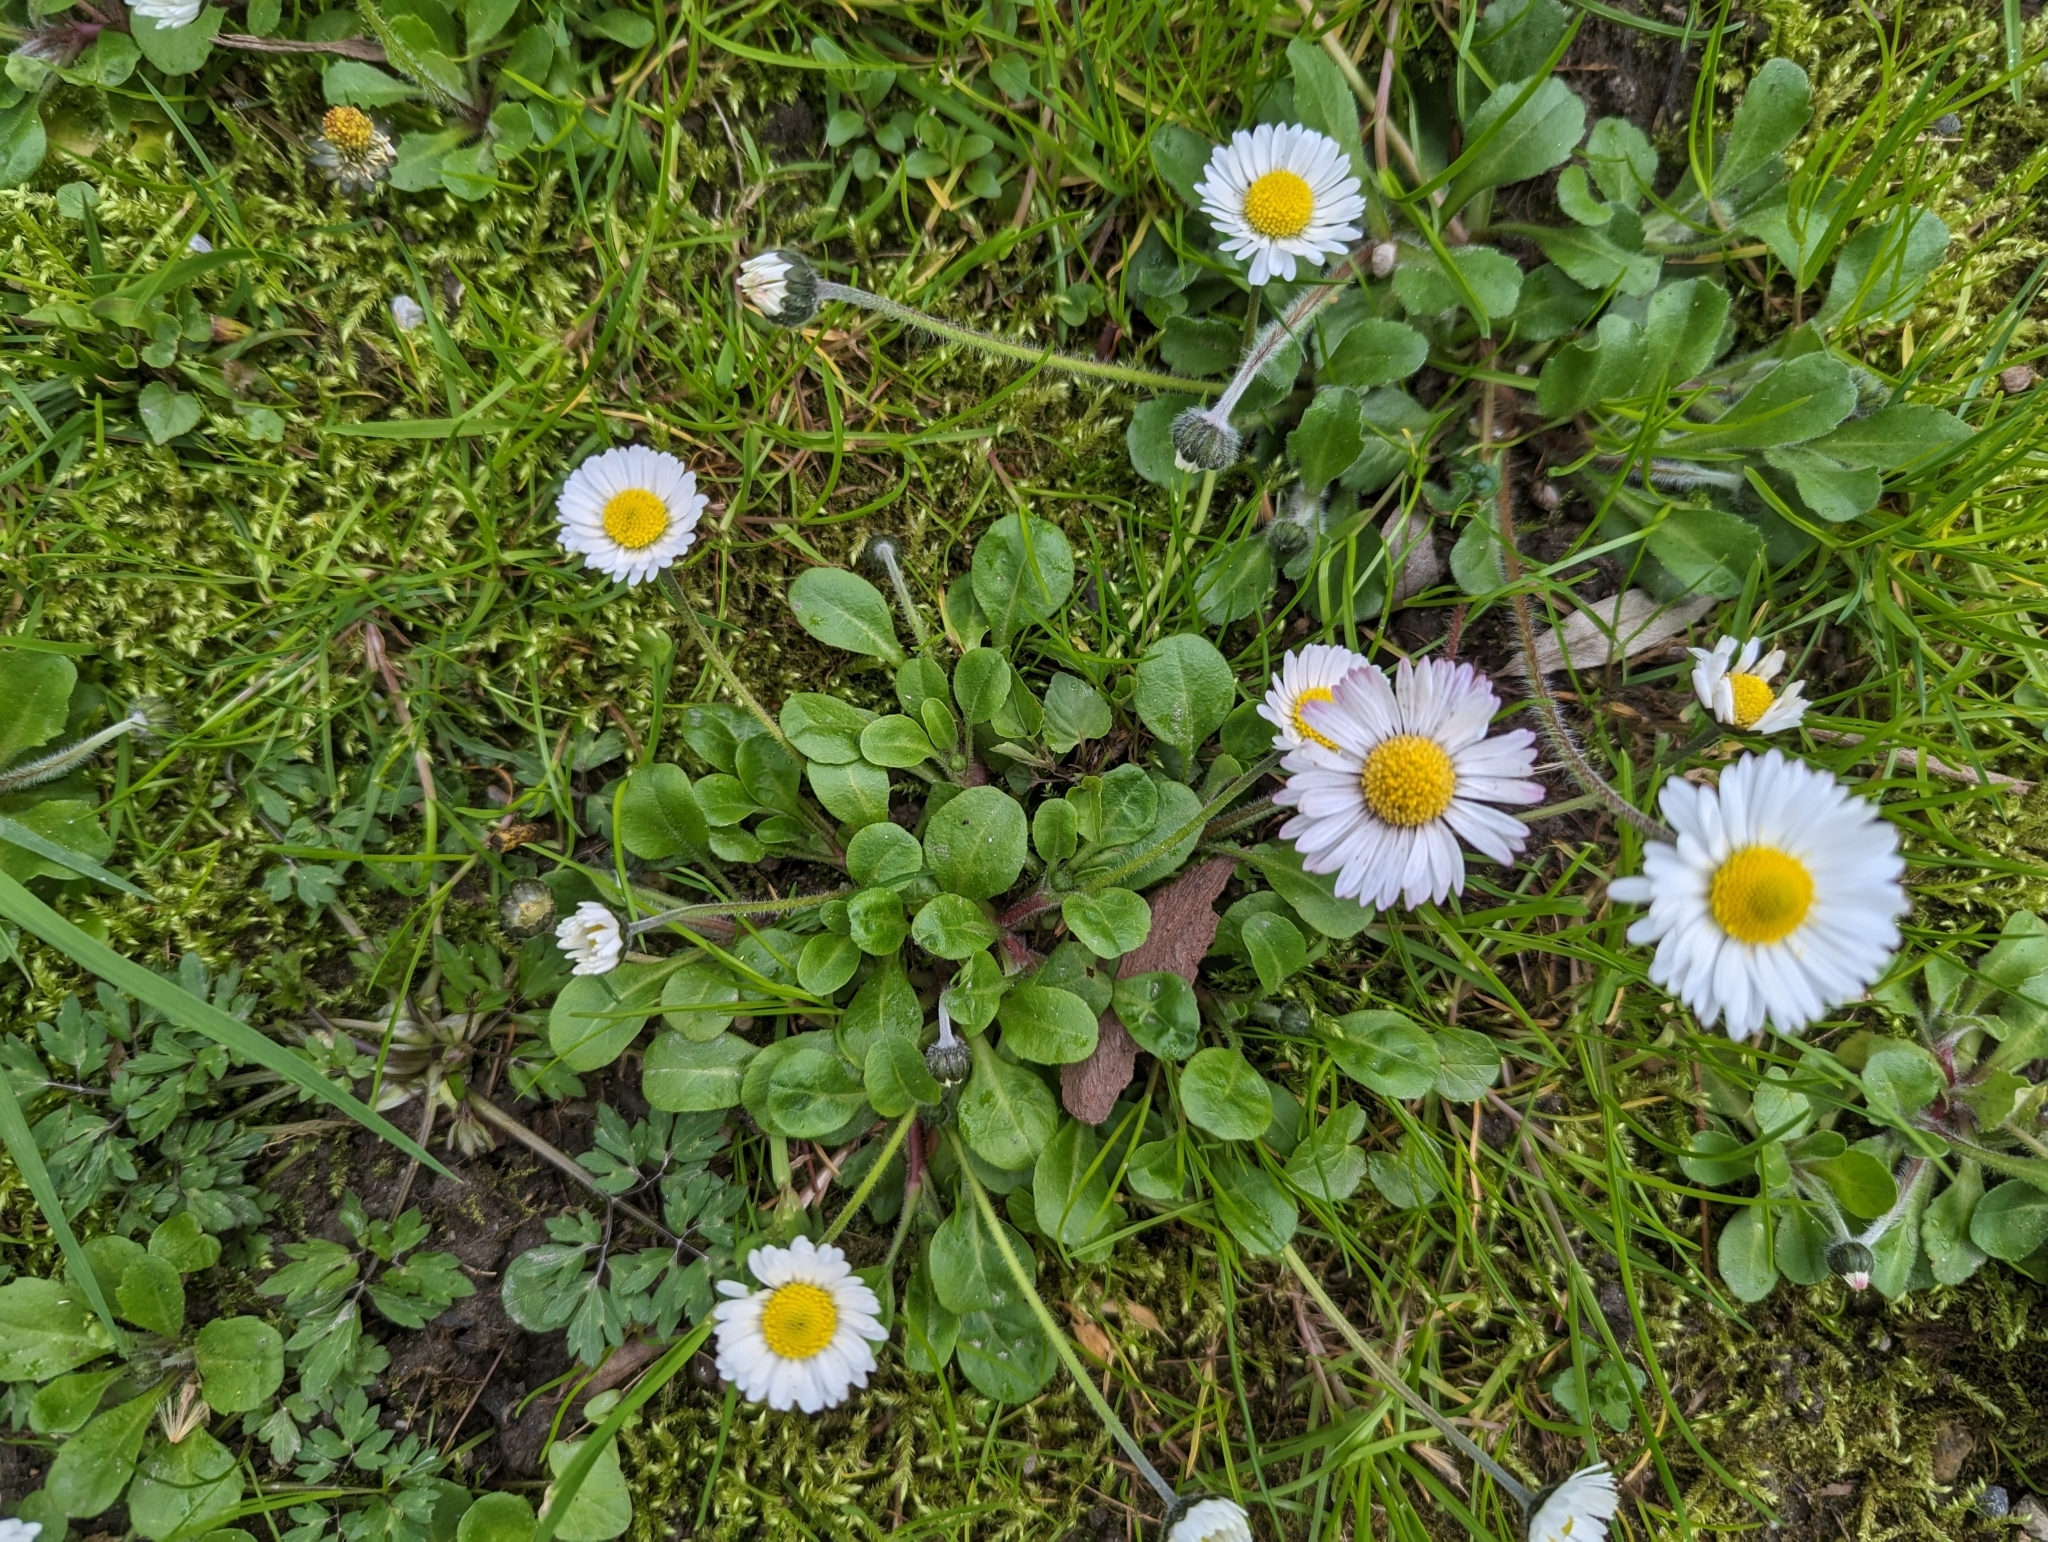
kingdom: Plantae
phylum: Tracheophyta
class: Magnoliopsida
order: Asterales
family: Asteraceae
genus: Bellis
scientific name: Bellis perennis
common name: Lawndaisy
